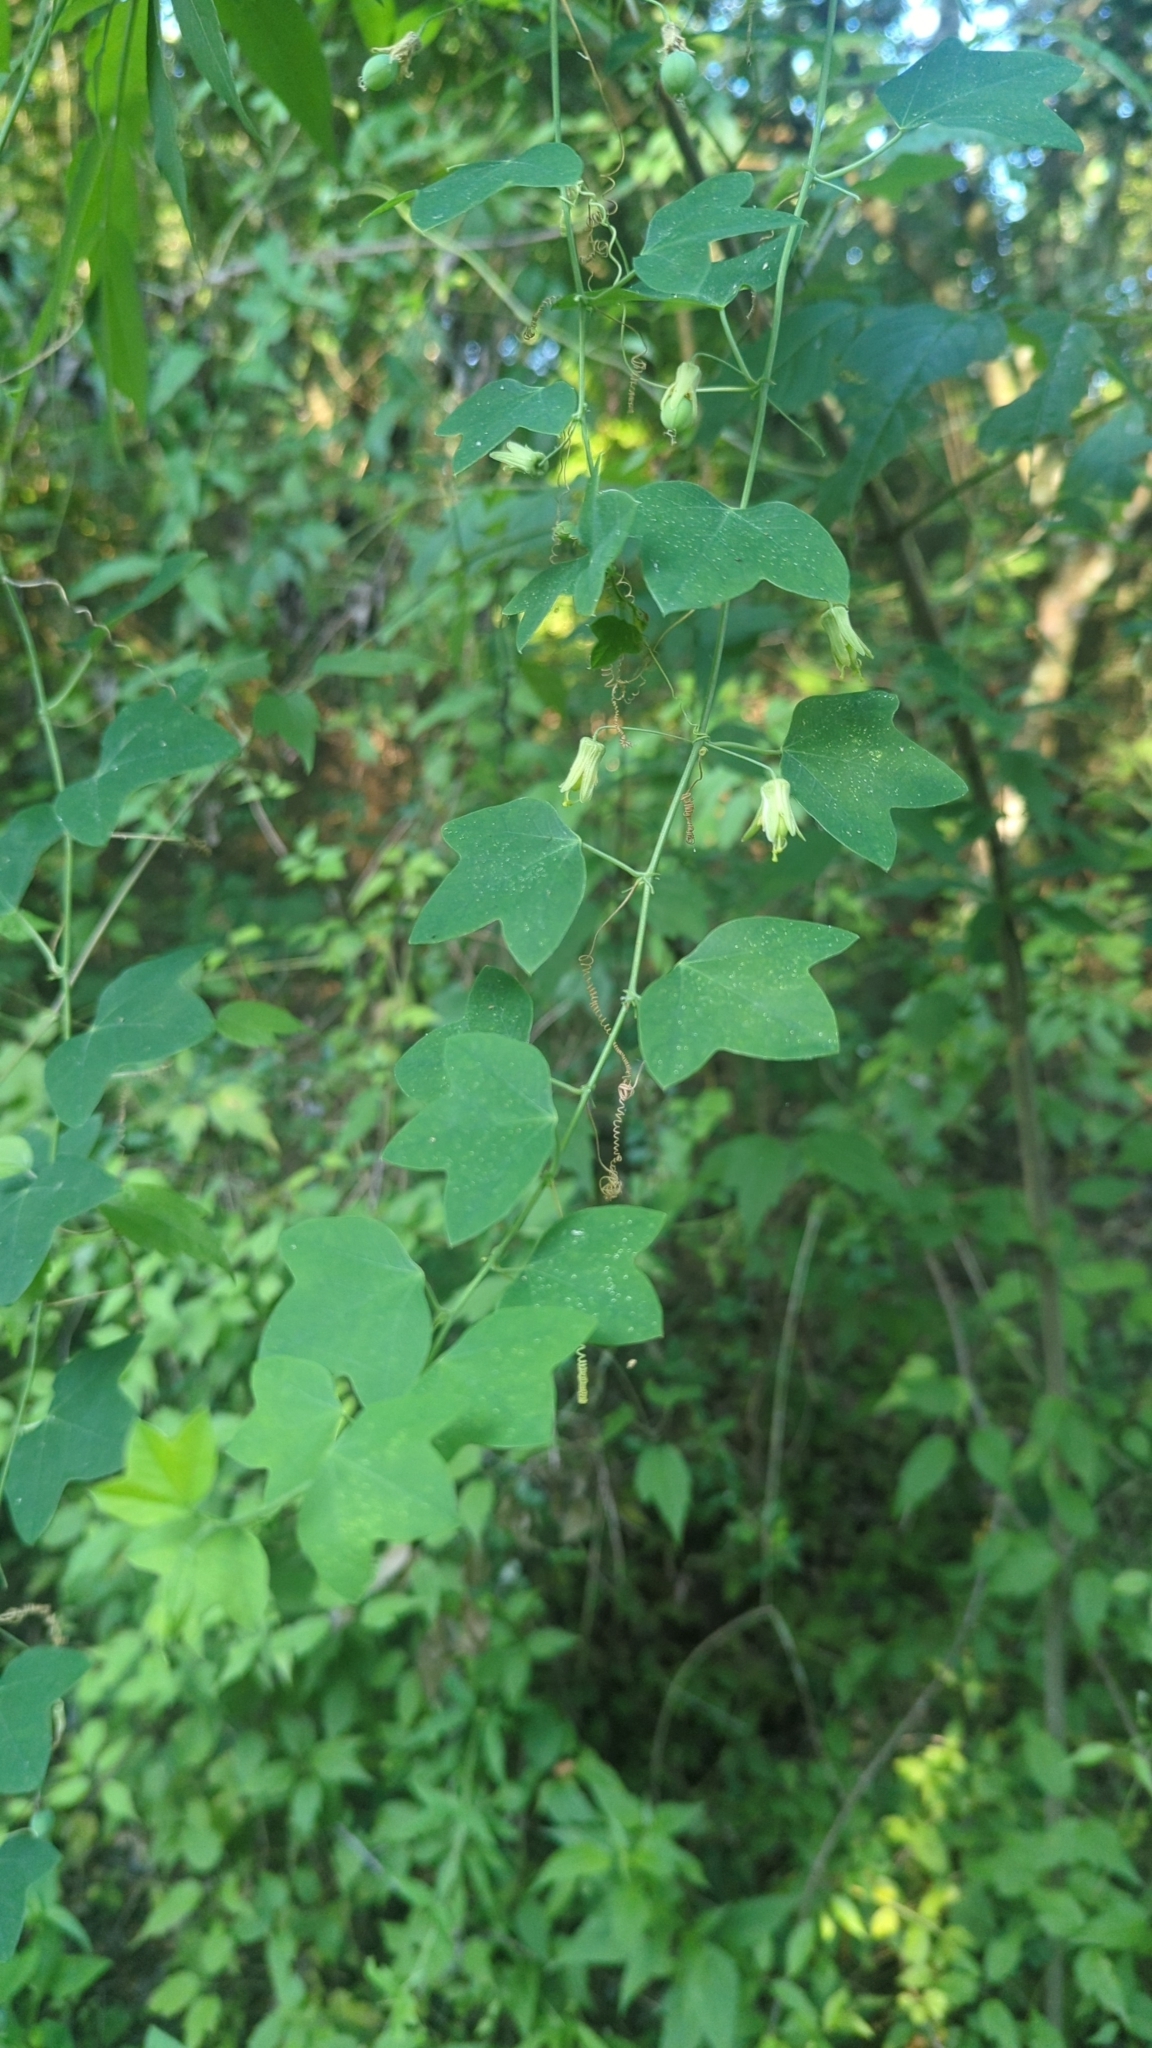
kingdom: Plantae
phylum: Tracheophyta
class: Magnoliopsida
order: Malpighiales
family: Passifloraceae
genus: Passiflora
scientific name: Passiflora lutea
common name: Yellow passionflower
